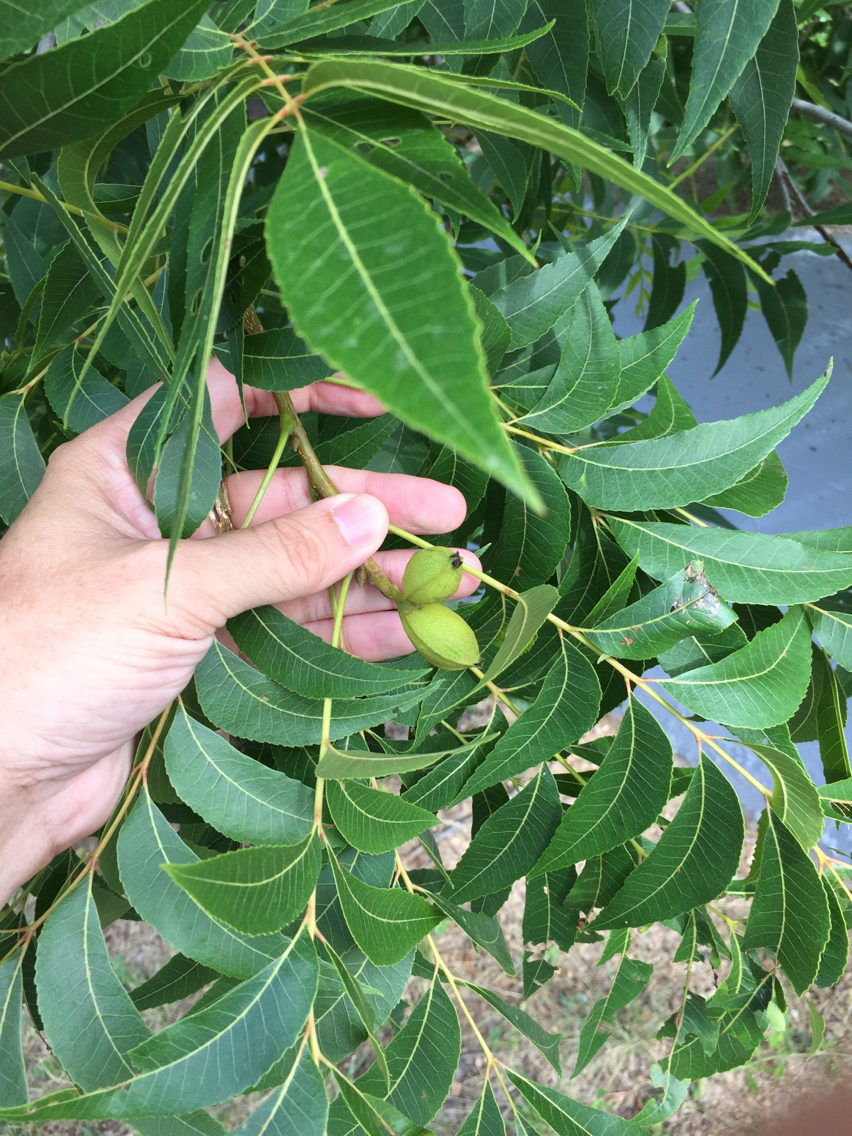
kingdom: Plantae
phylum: Tracheophyta
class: Magnoliopsida
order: Fagales
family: Juglandaceae
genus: Carya
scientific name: Carya illinoinensis
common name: Pecan
